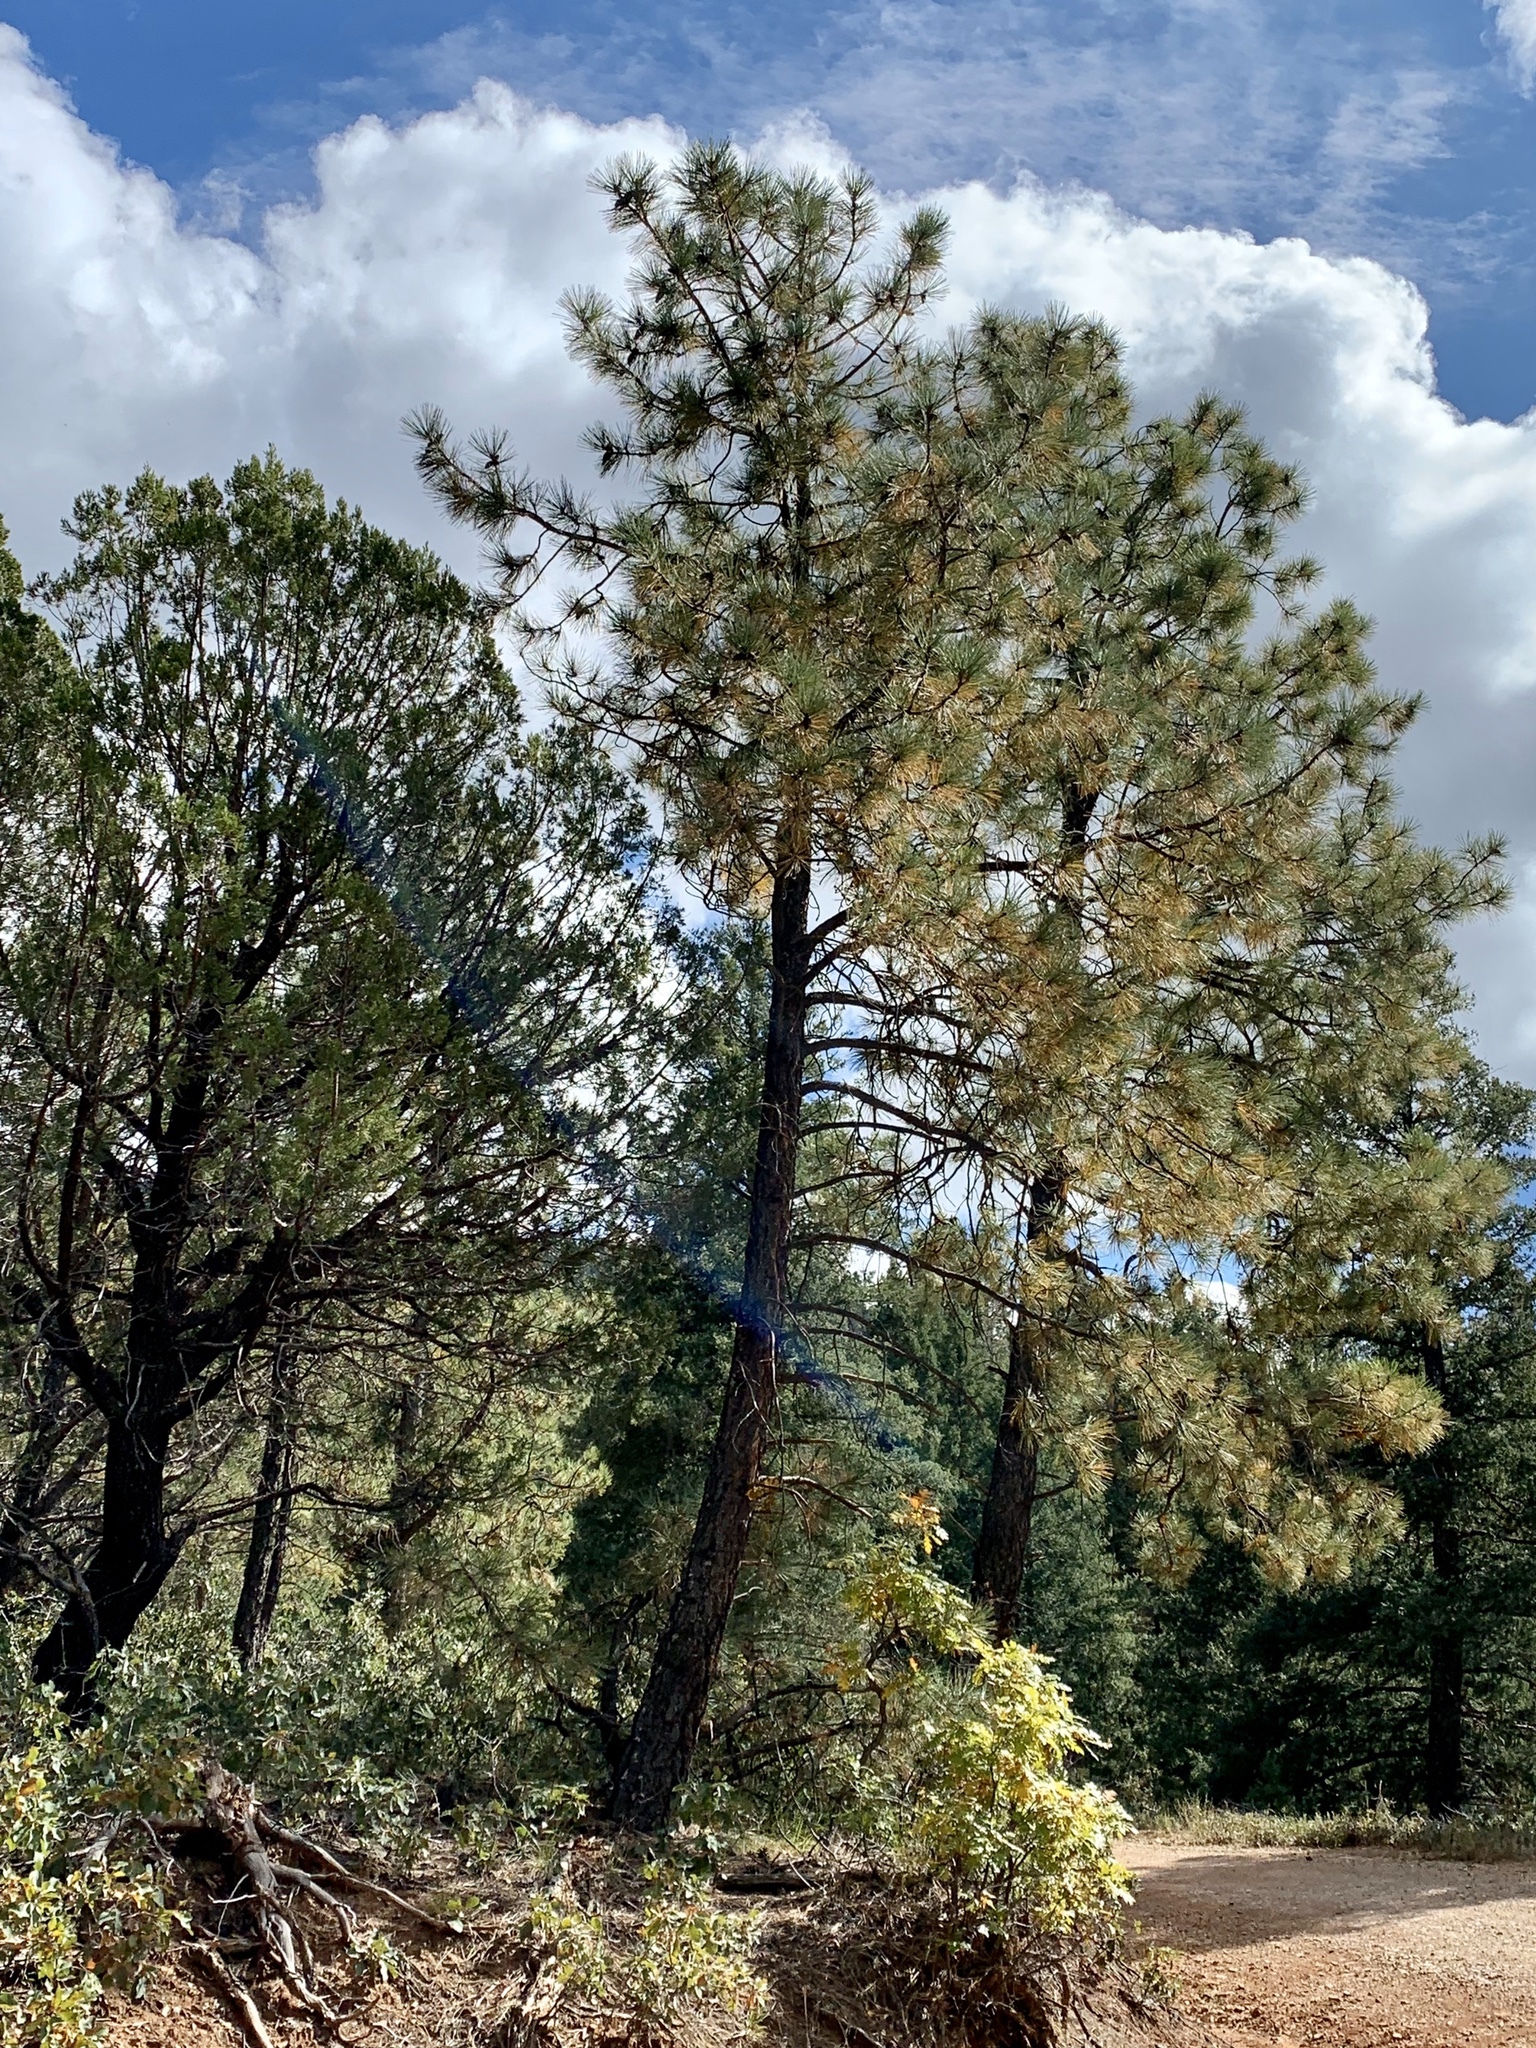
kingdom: Plantae
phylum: Tracheophyta
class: Pinopsida
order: Pinales
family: Pinaceae
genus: Pinus
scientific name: Pinus ponderosa
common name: Western yellow-pine
